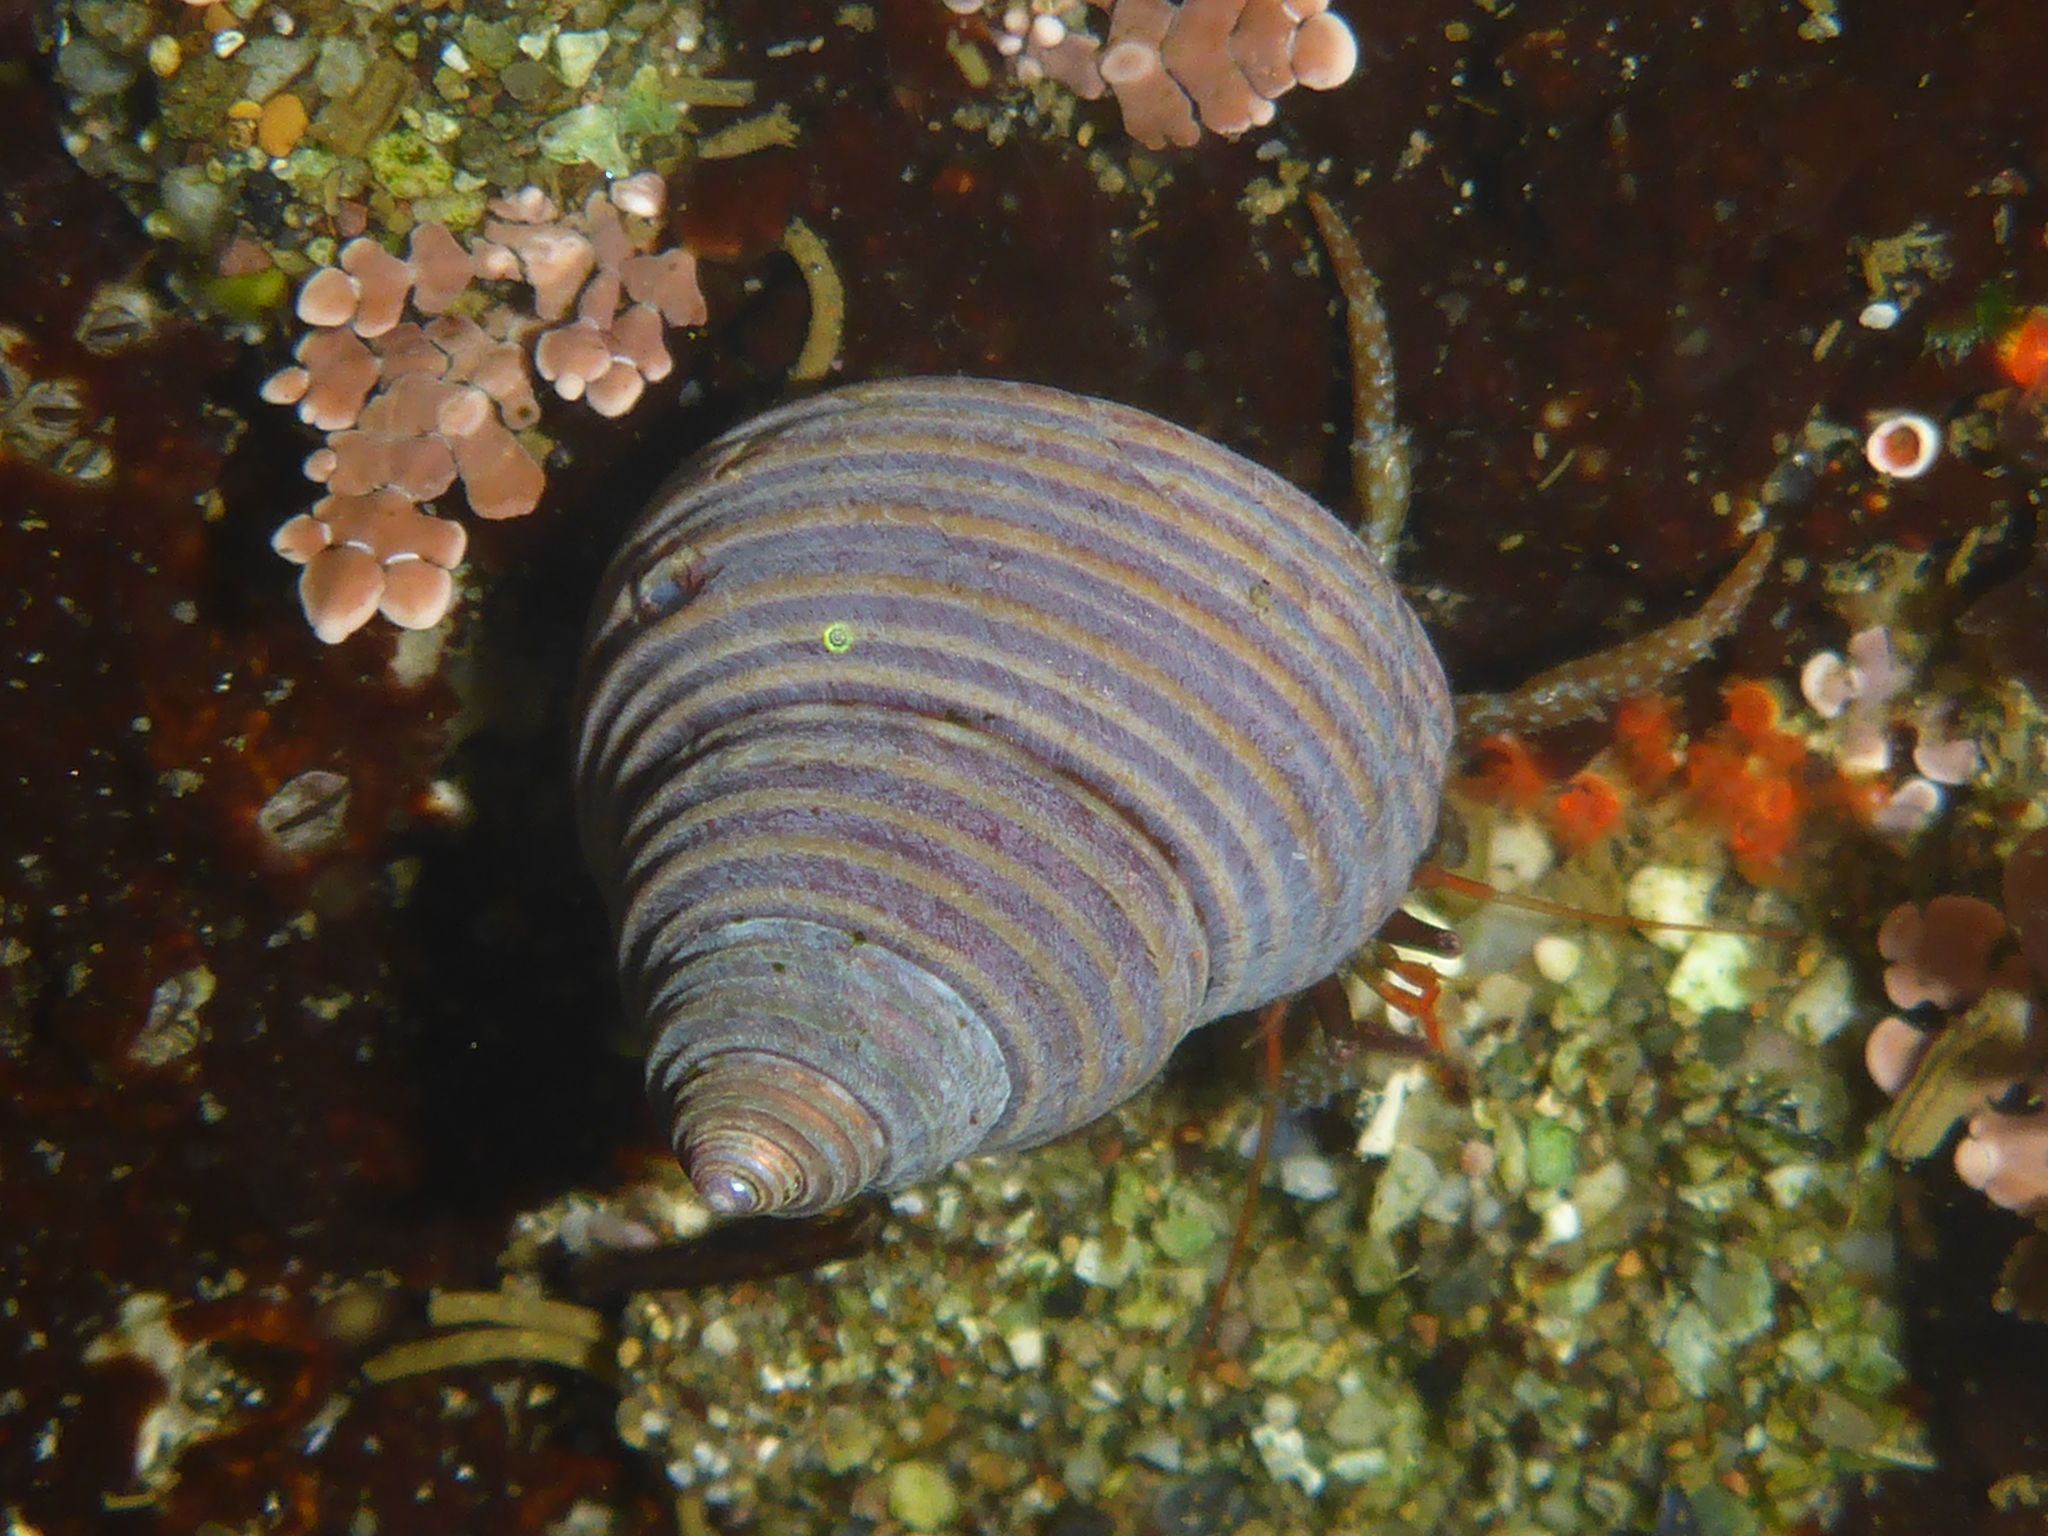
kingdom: Animalia
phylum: Mollusca
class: Gastropoda
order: Trochida
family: Calliostomatidae
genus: Calliostoma
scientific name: Calliostoma ligatum
